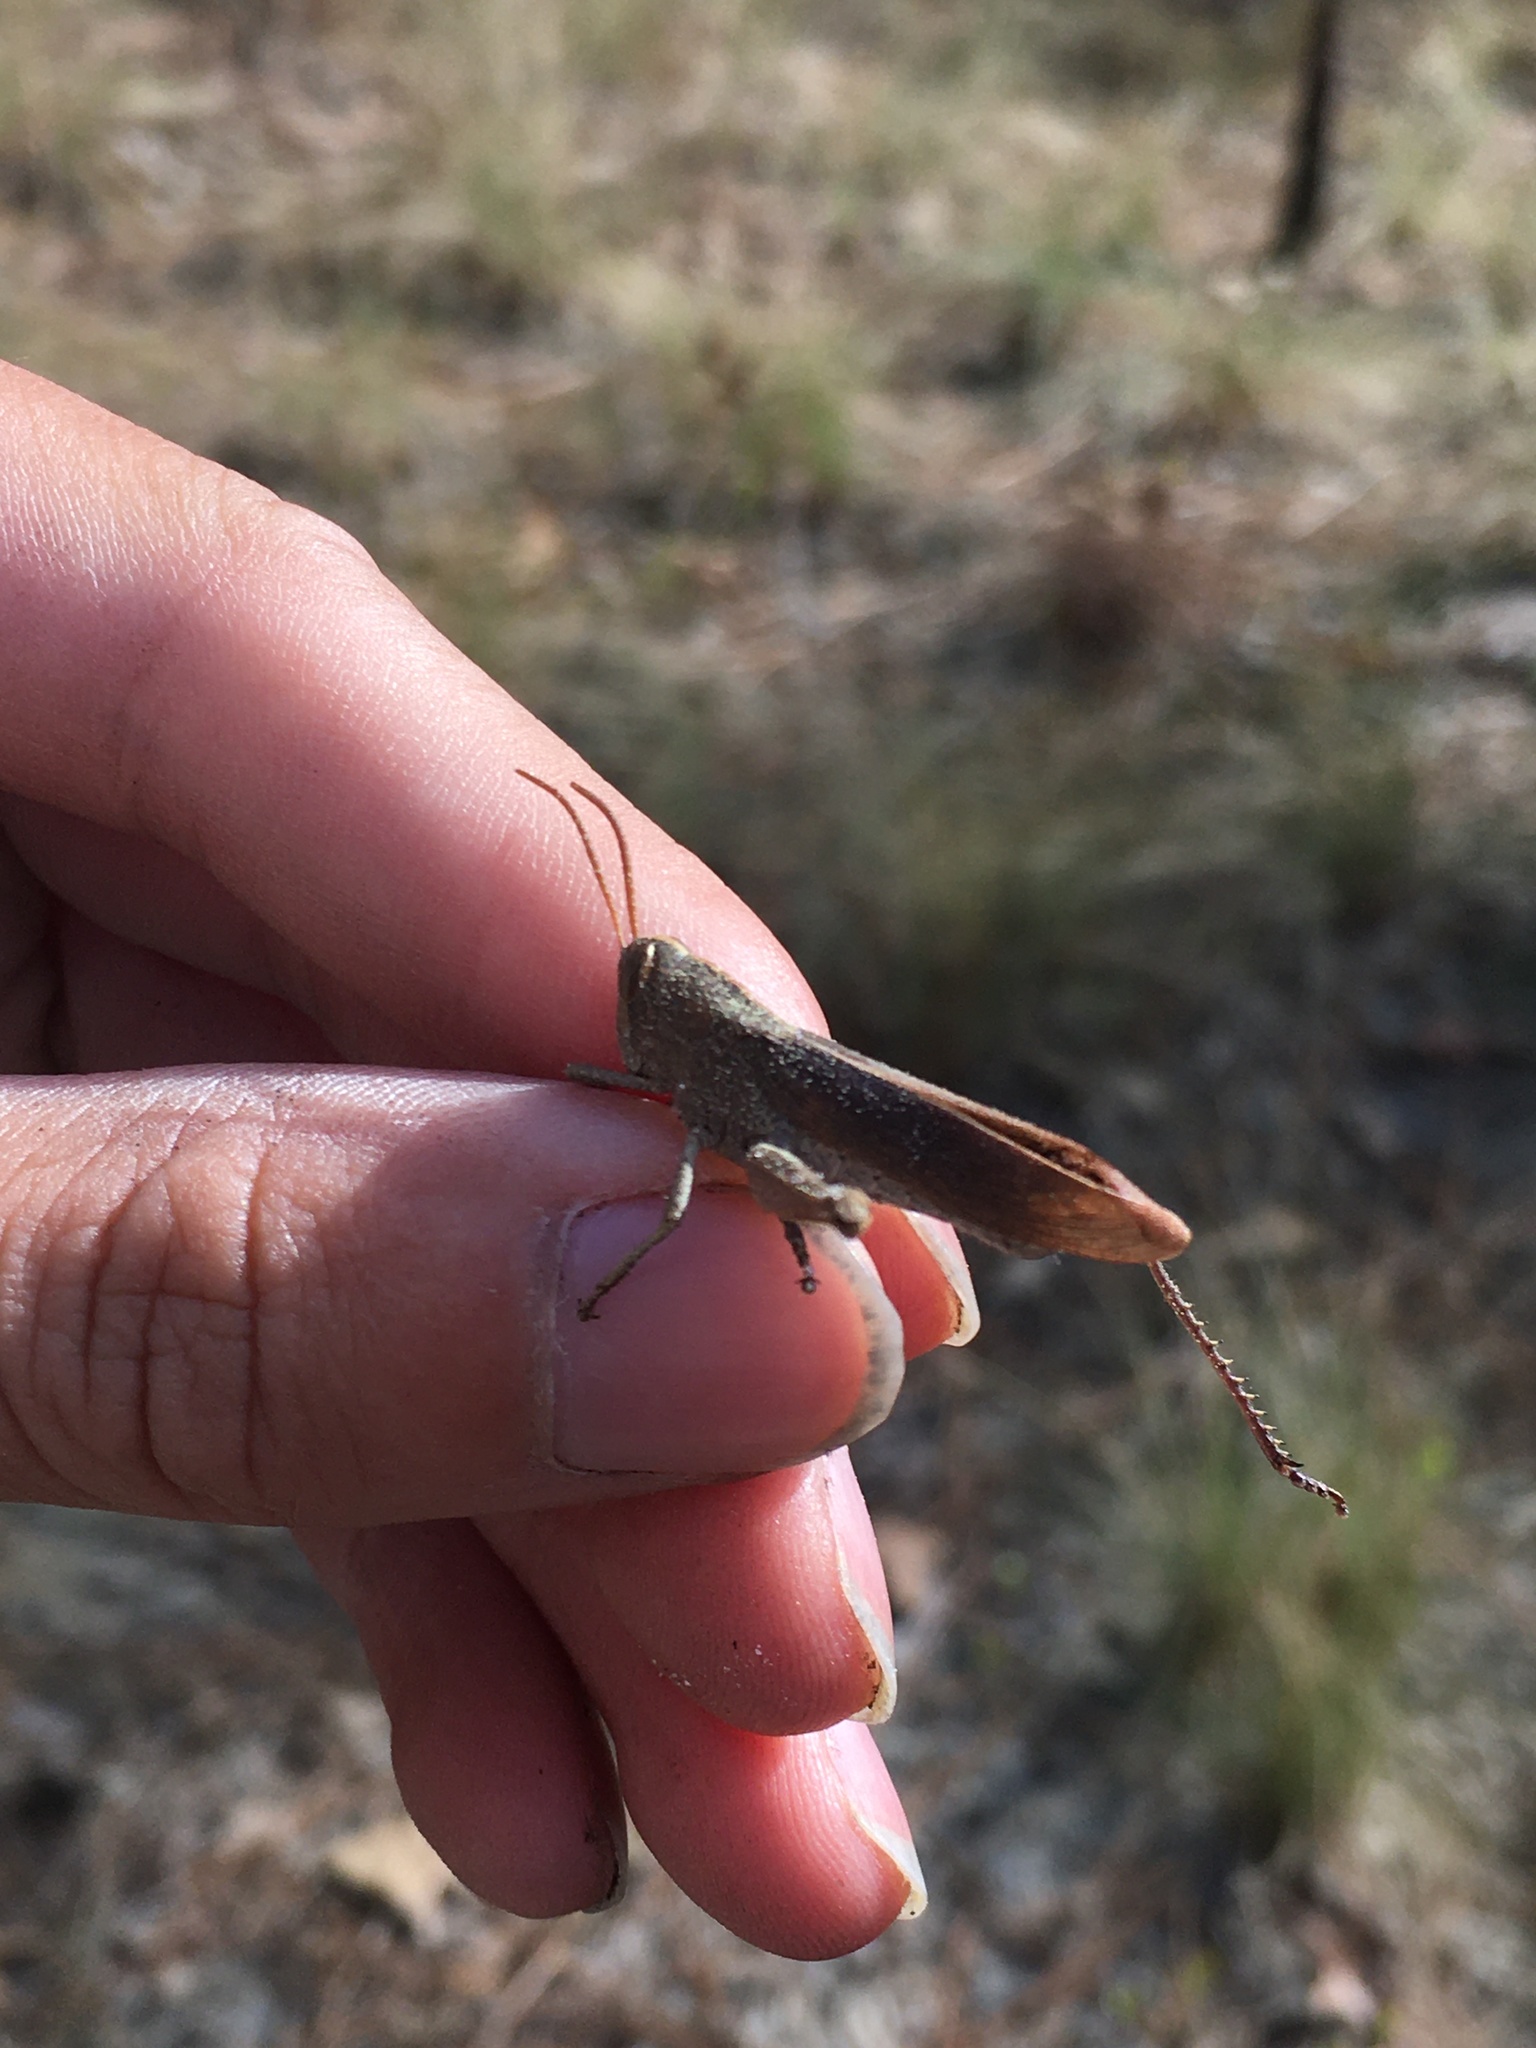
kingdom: Animalia
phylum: Arthropoda
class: Insecta
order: Orthoptera
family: Acrididae
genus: Schistocerca
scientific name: Schistocerca damnifica
